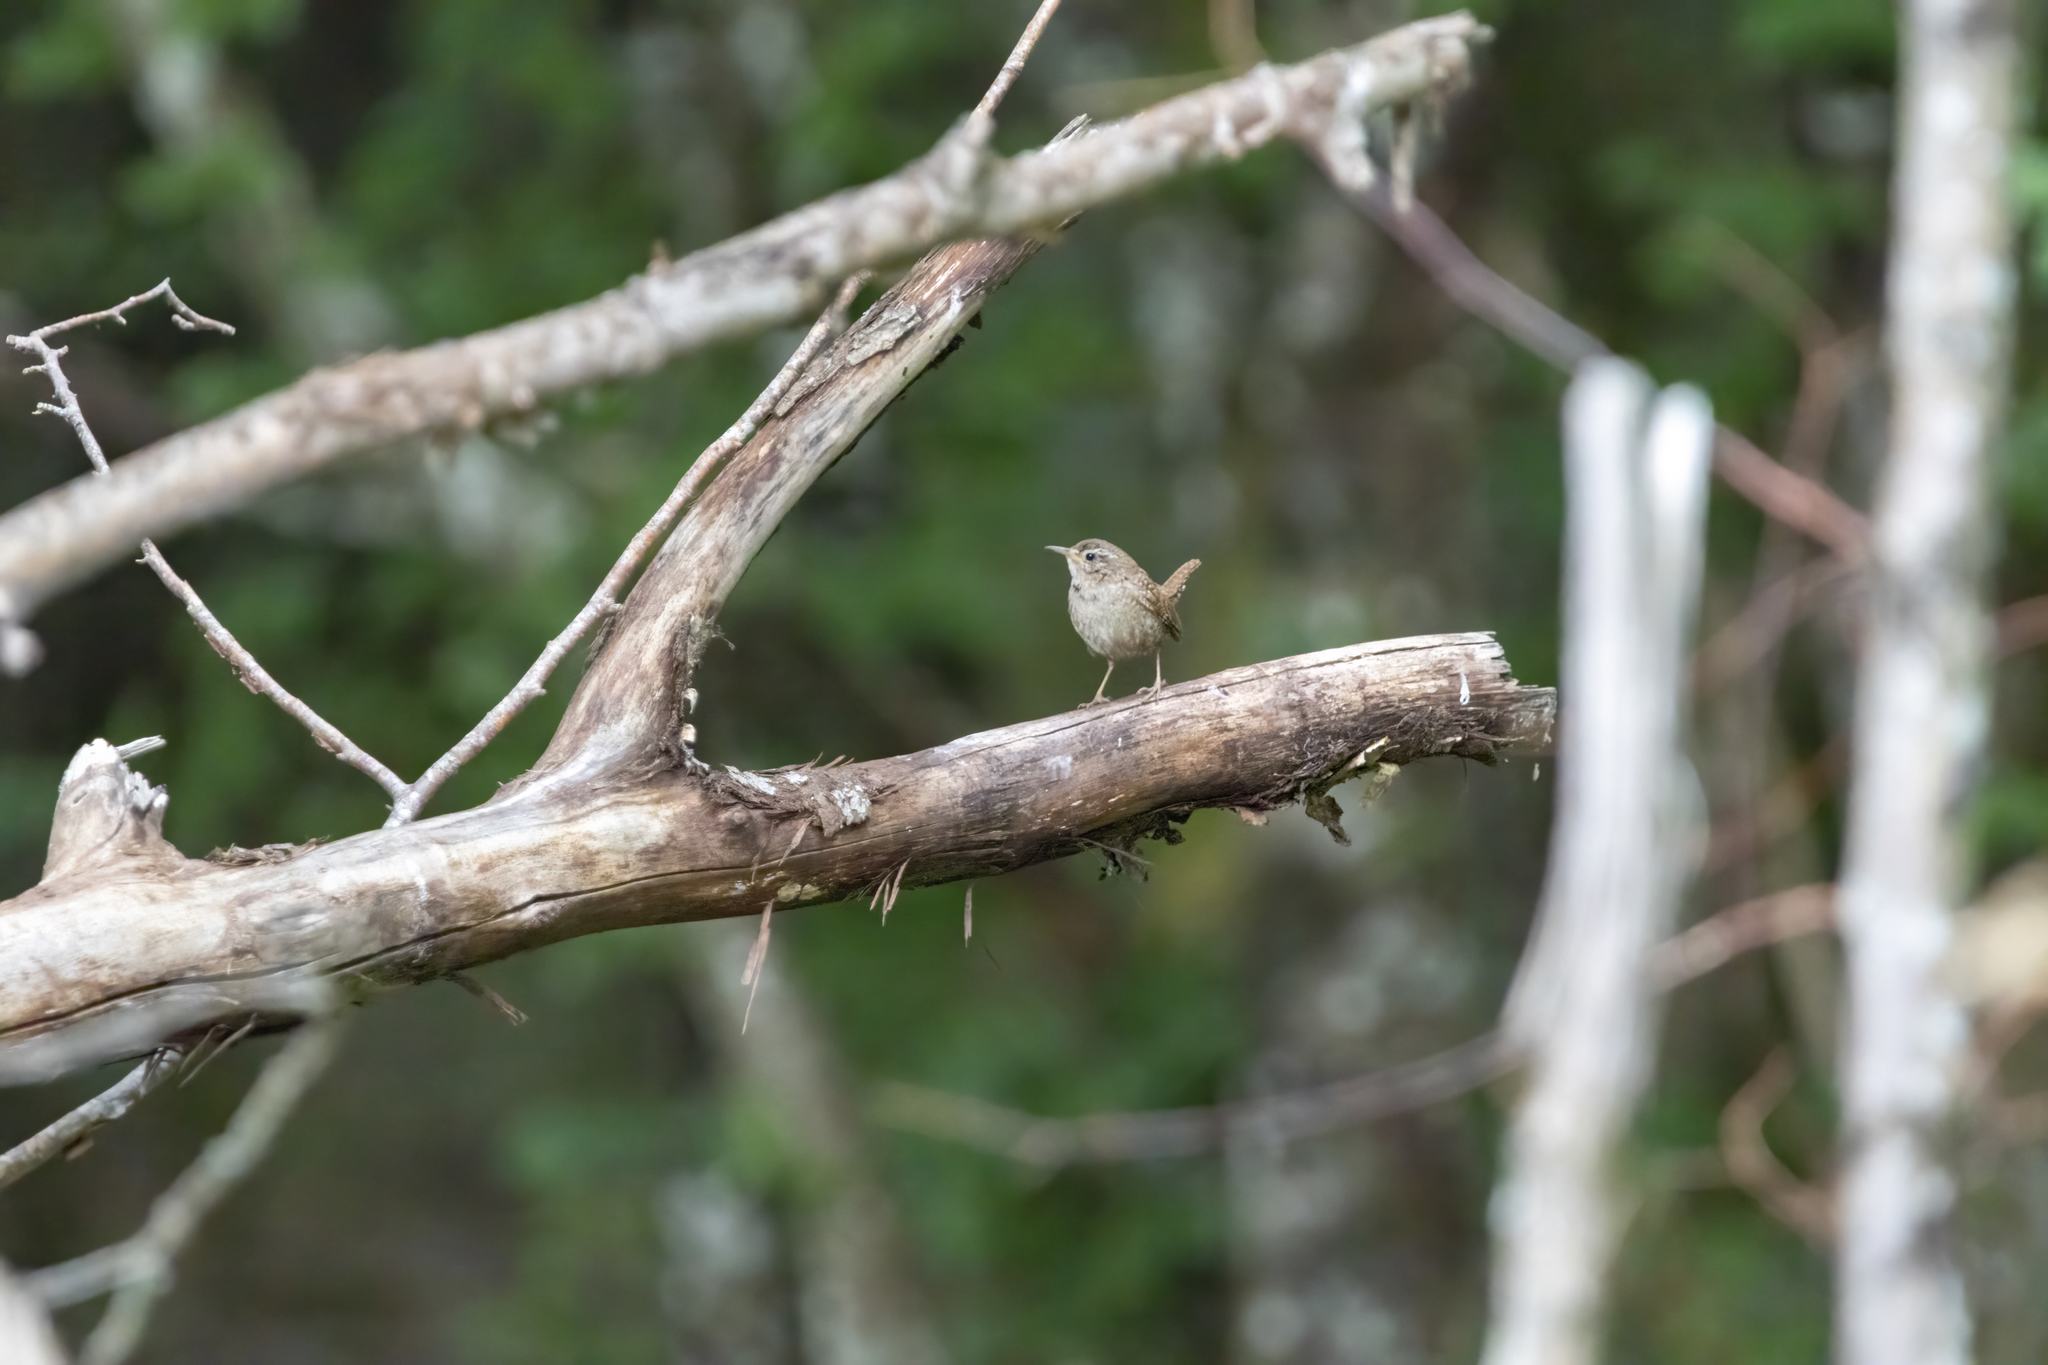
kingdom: Animalia
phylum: Chordata
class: Aves
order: Passeriformes
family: Troglodytidae
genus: Troglodytes
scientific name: Troglodytes troglodytes
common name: Eurasian wren
